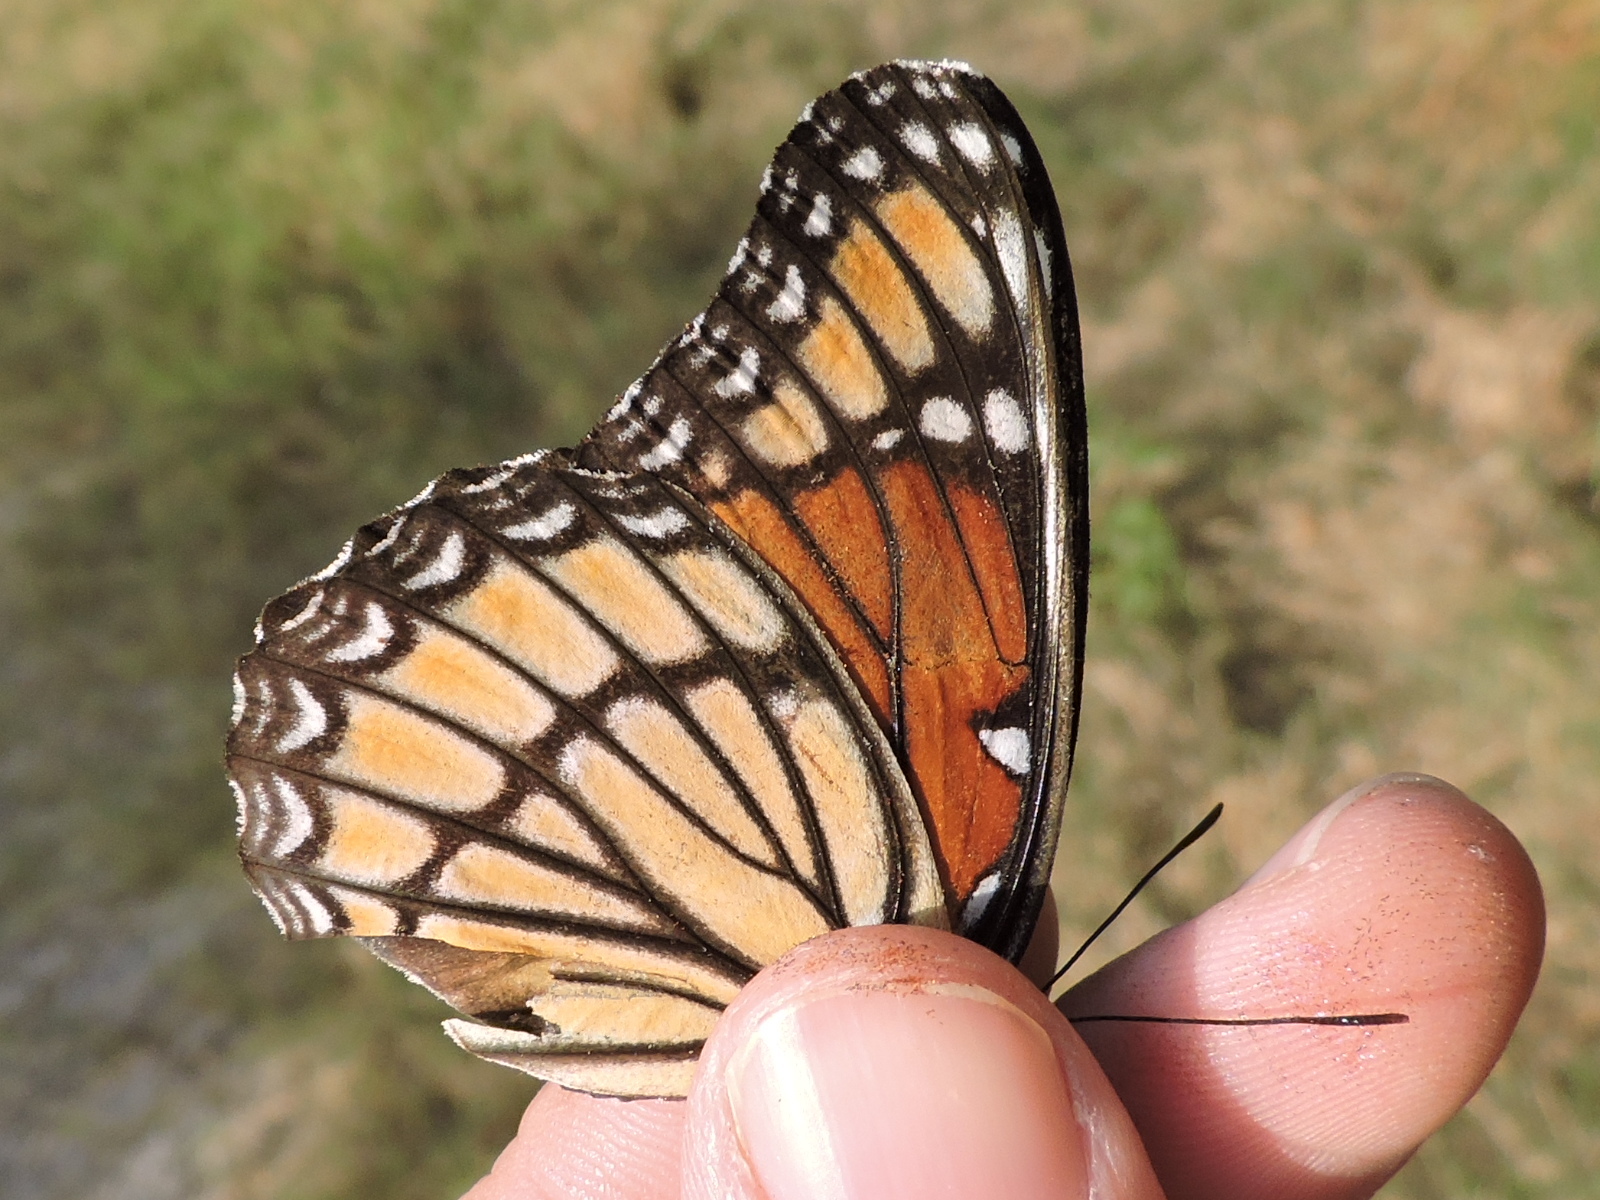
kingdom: Animalia
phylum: Arthropoda
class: Insecta
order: Lepidoptera
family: Nymphalidae
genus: Limenitis
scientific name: Limenitis archippus
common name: Viceroy
